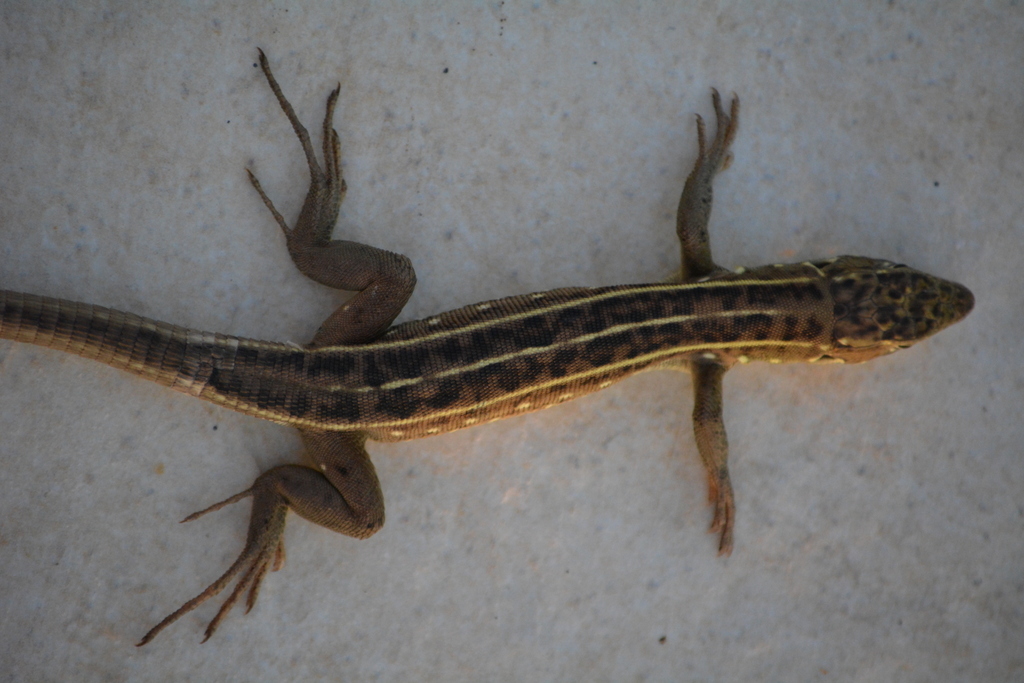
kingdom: Animalia
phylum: Chordata
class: Squamata
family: Lacertidae
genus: Lacerta
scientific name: Lacerta trilineata
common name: Balkan green lizard
